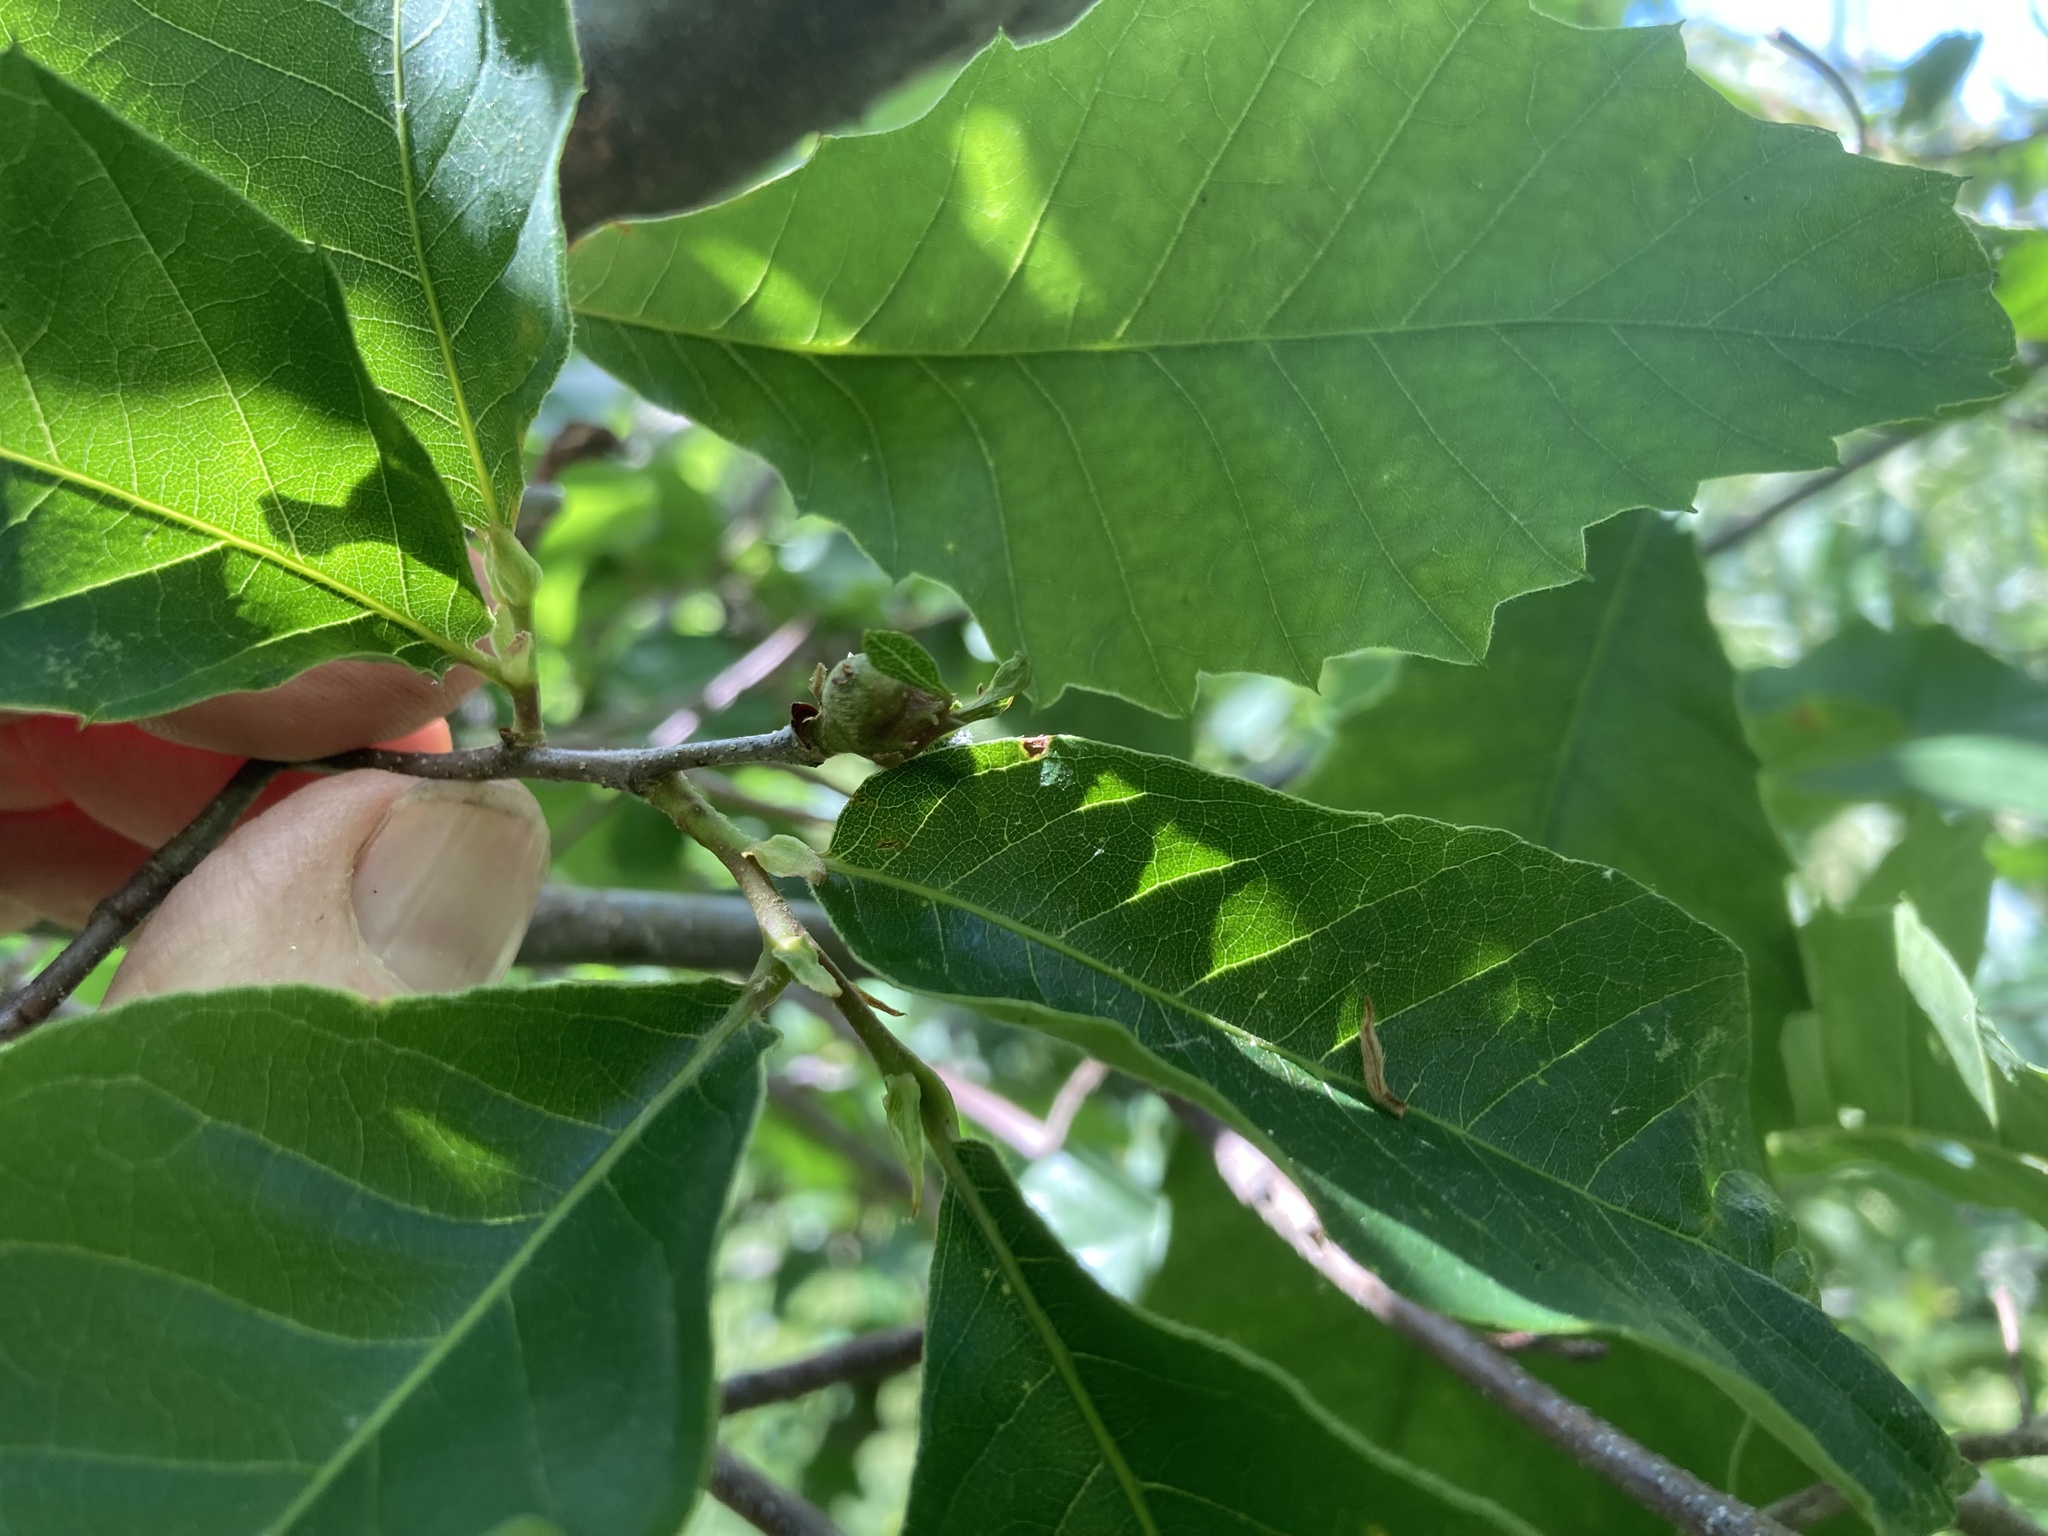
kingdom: Animalia
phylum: Arthropoda
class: Insecta
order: Hymenoptera
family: Cynipidae
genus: Dryocosmus
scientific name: Dryocosmus kuriphilus
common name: Asian chestnut gall wasp
